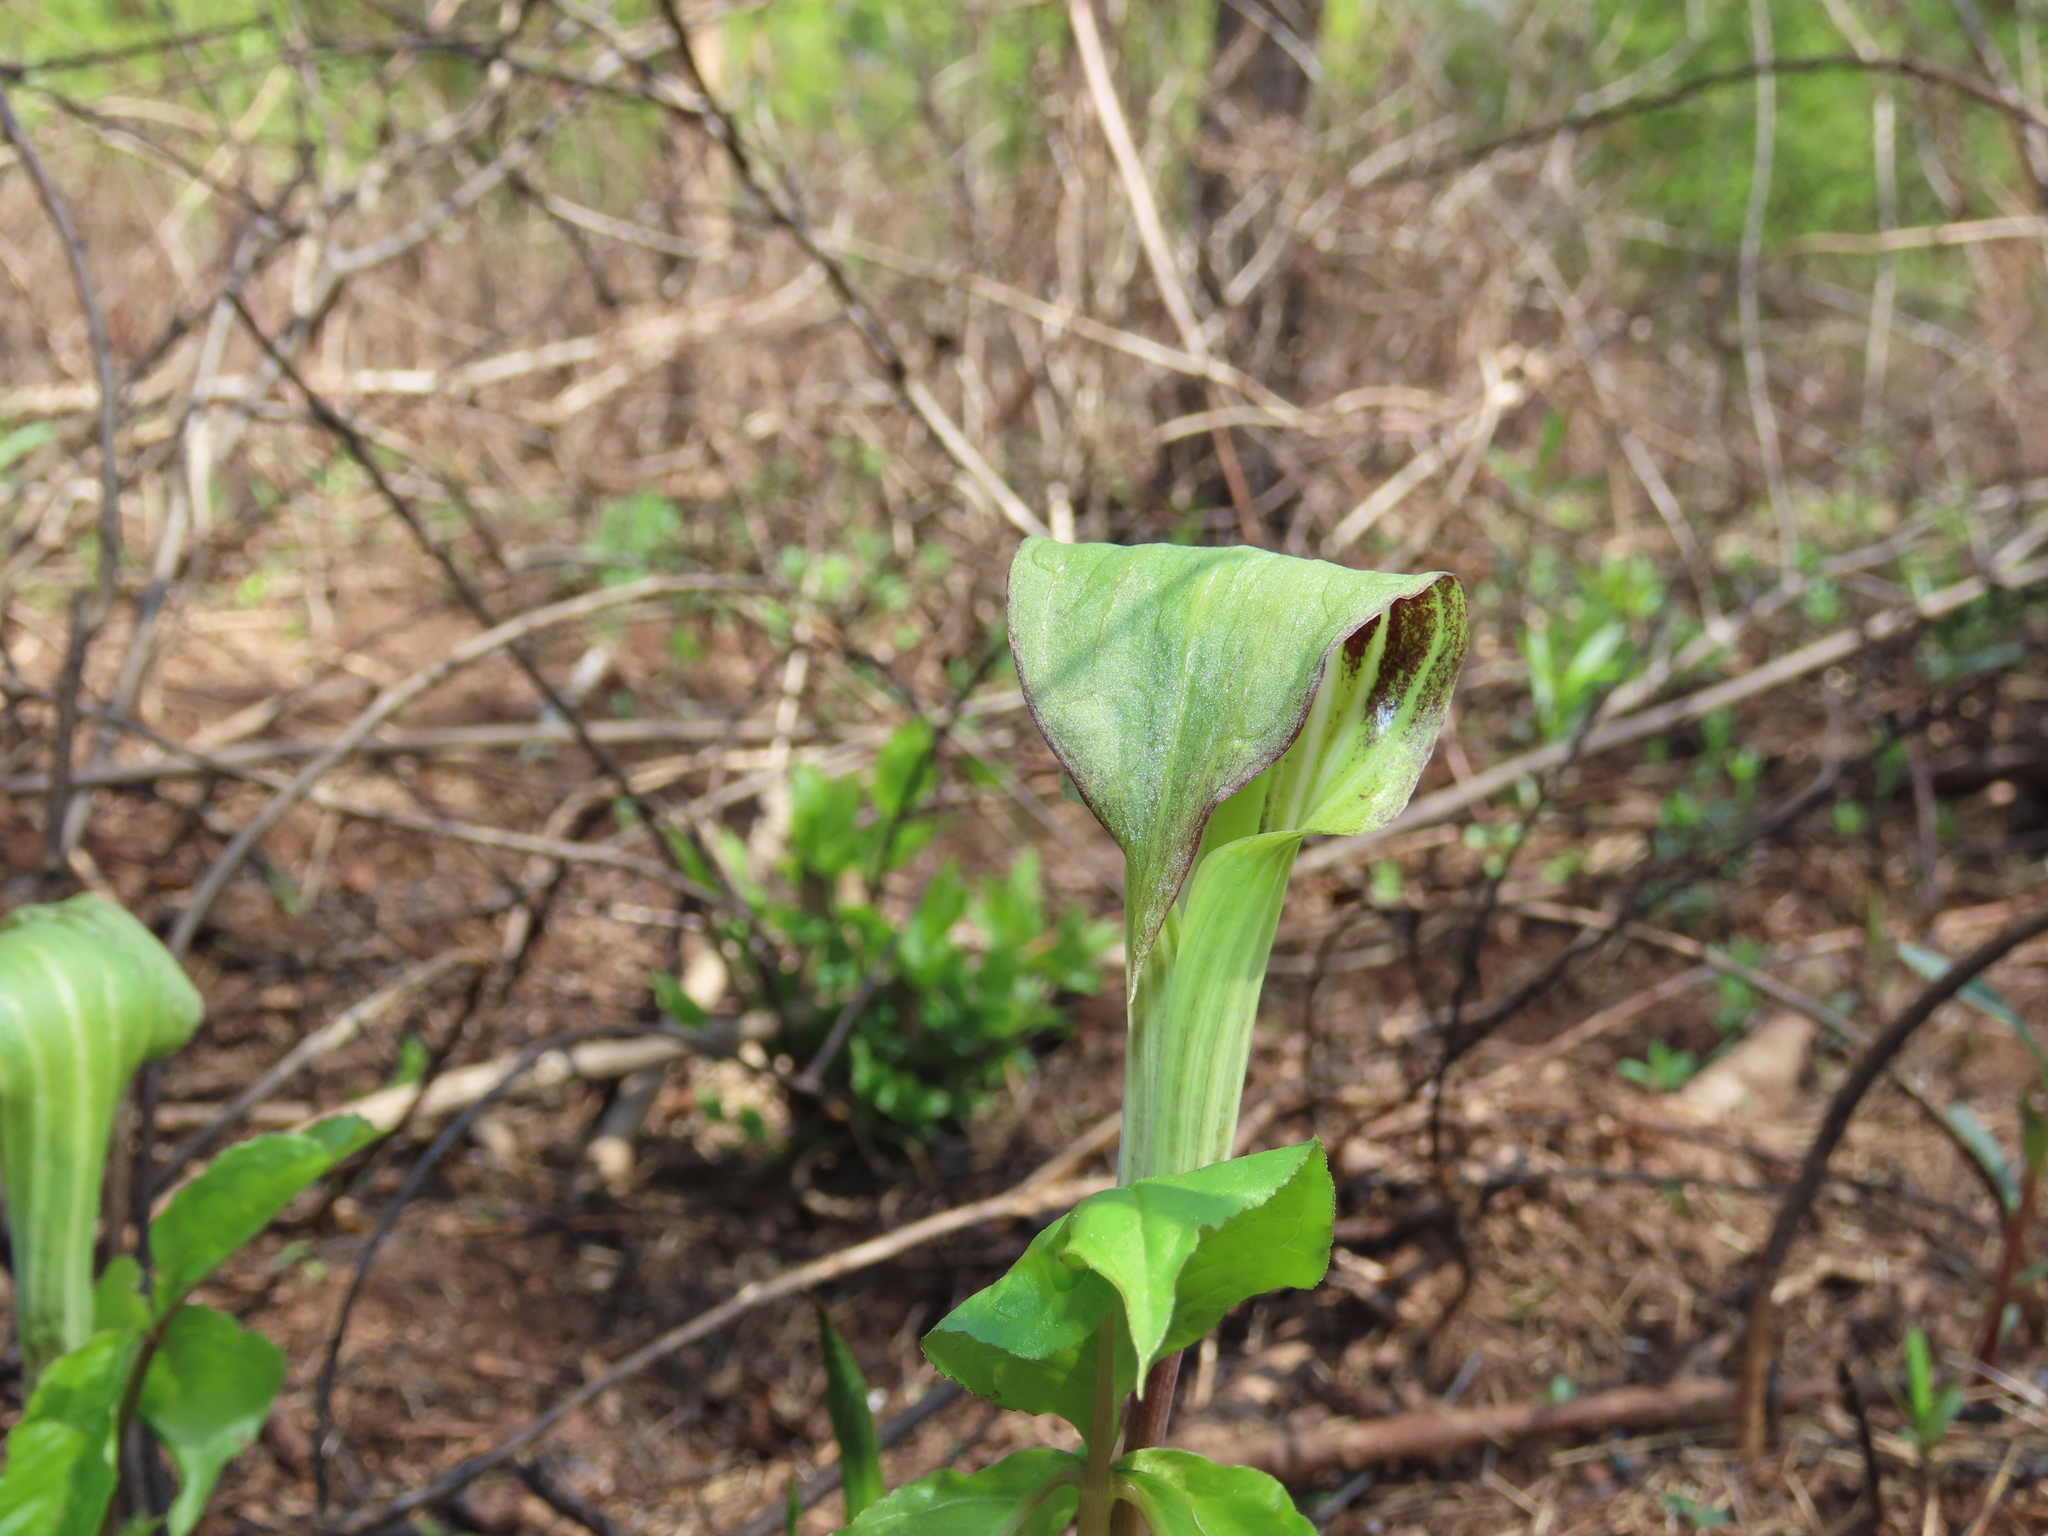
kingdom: Plantae
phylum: Tracheophyta
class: Liliopsida
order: Alismatales
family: Araceae
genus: Arisaema
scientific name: Arisaema triphyllum
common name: Jack-in-the-pulpit
